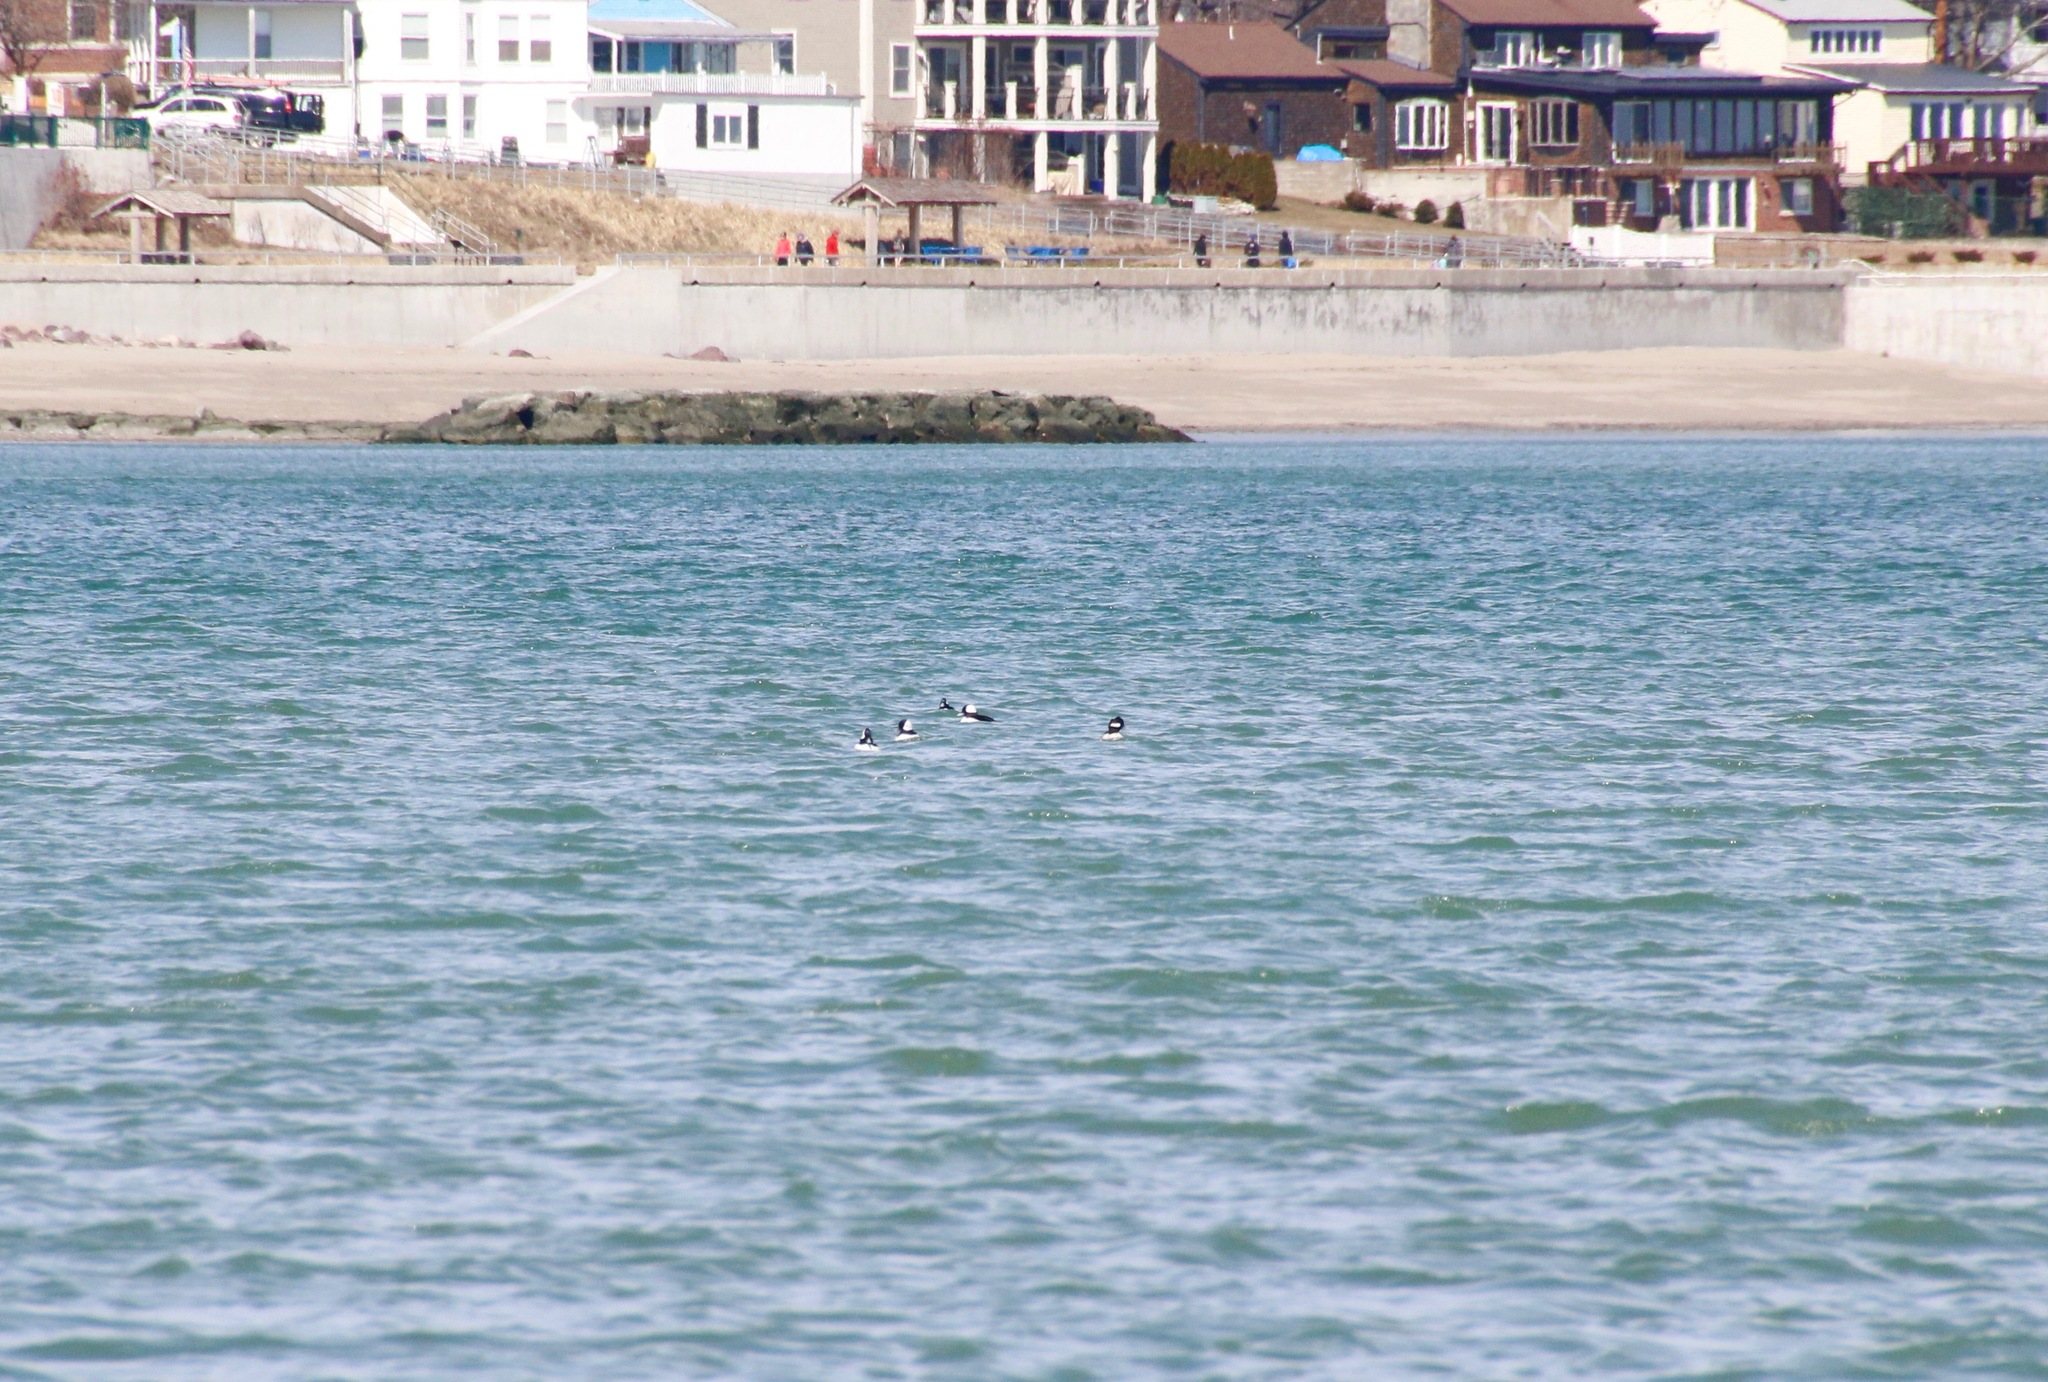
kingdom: Animalia
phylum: Chordata
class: Aves
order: Anseriformes
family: Anatidae
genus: Bucephala
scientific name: Bucephala albeola
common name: Bufflehead
